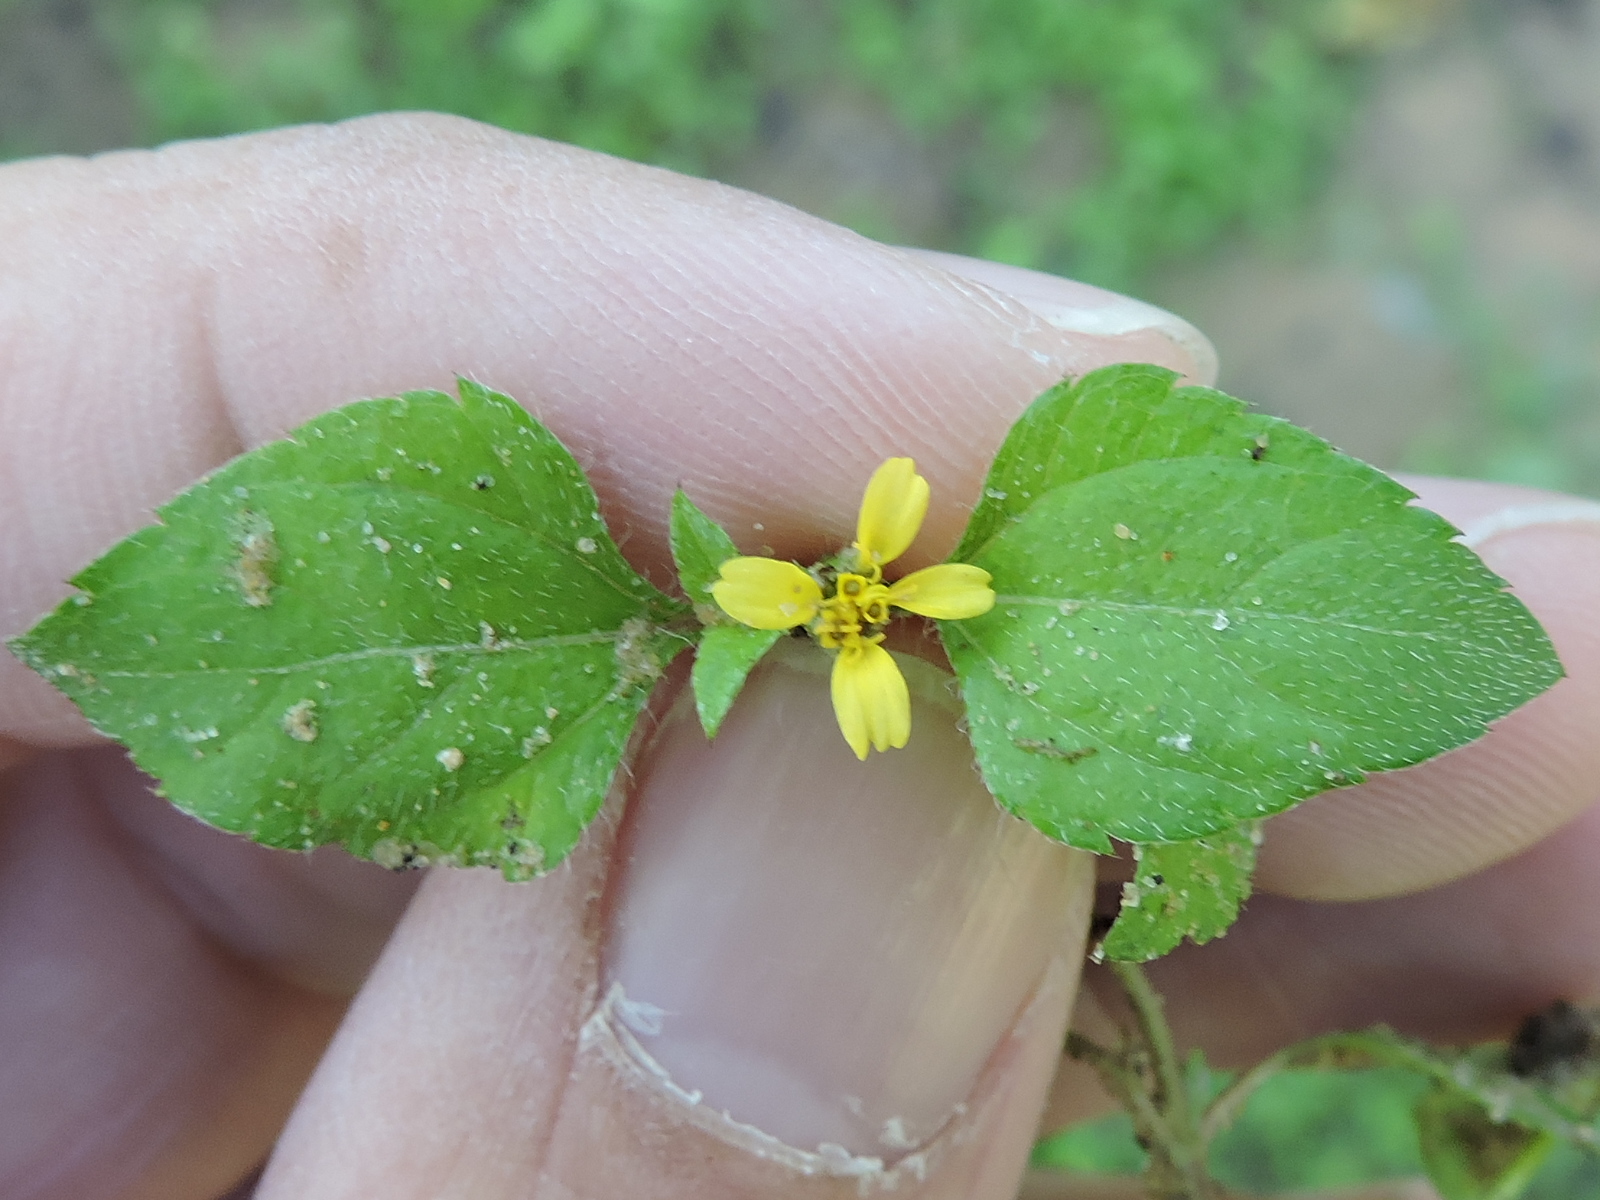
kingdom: Plantae
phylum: Tracheophyta
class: Magnoliopsida
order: Asterales
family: Asteraceae
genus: Calyptocarpus
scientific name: Calyptocarpus vialis
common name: Straggler daisy
